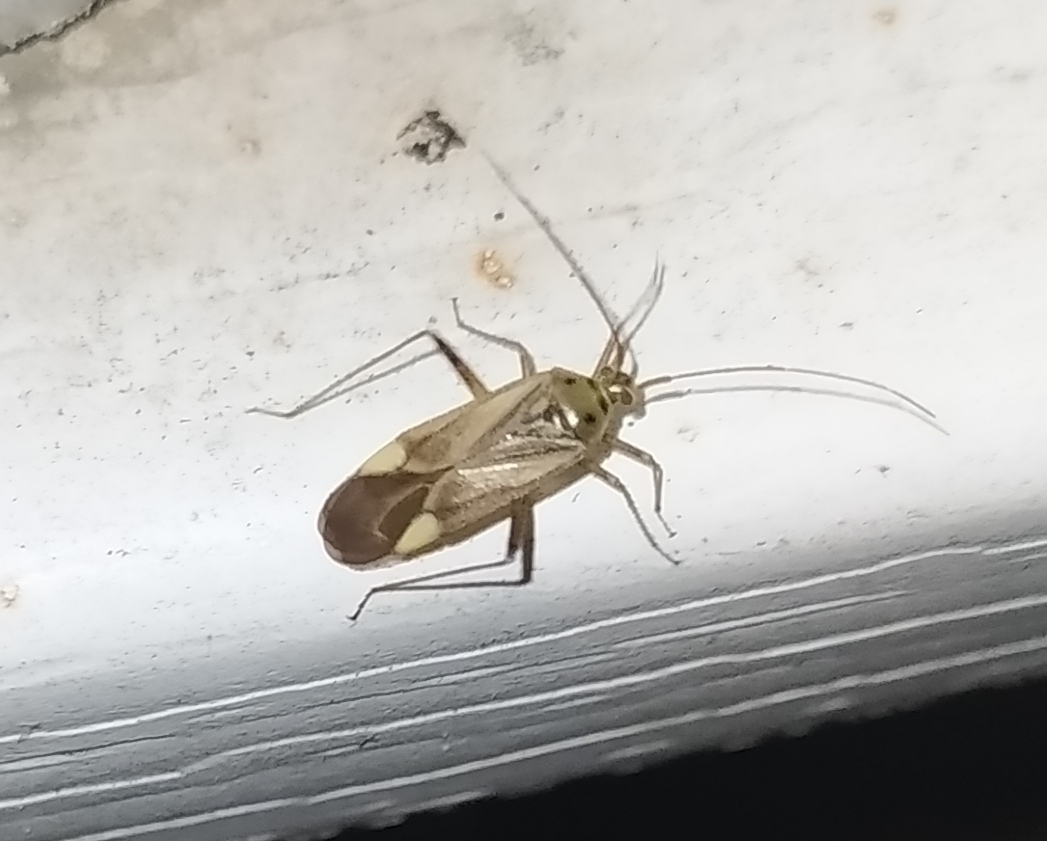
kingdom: Animalia
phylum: Arthropoda
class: Insecta
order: Hemiptera
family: Miridae
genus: Adelphocoris
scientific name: Adelphocoris lineolatus
